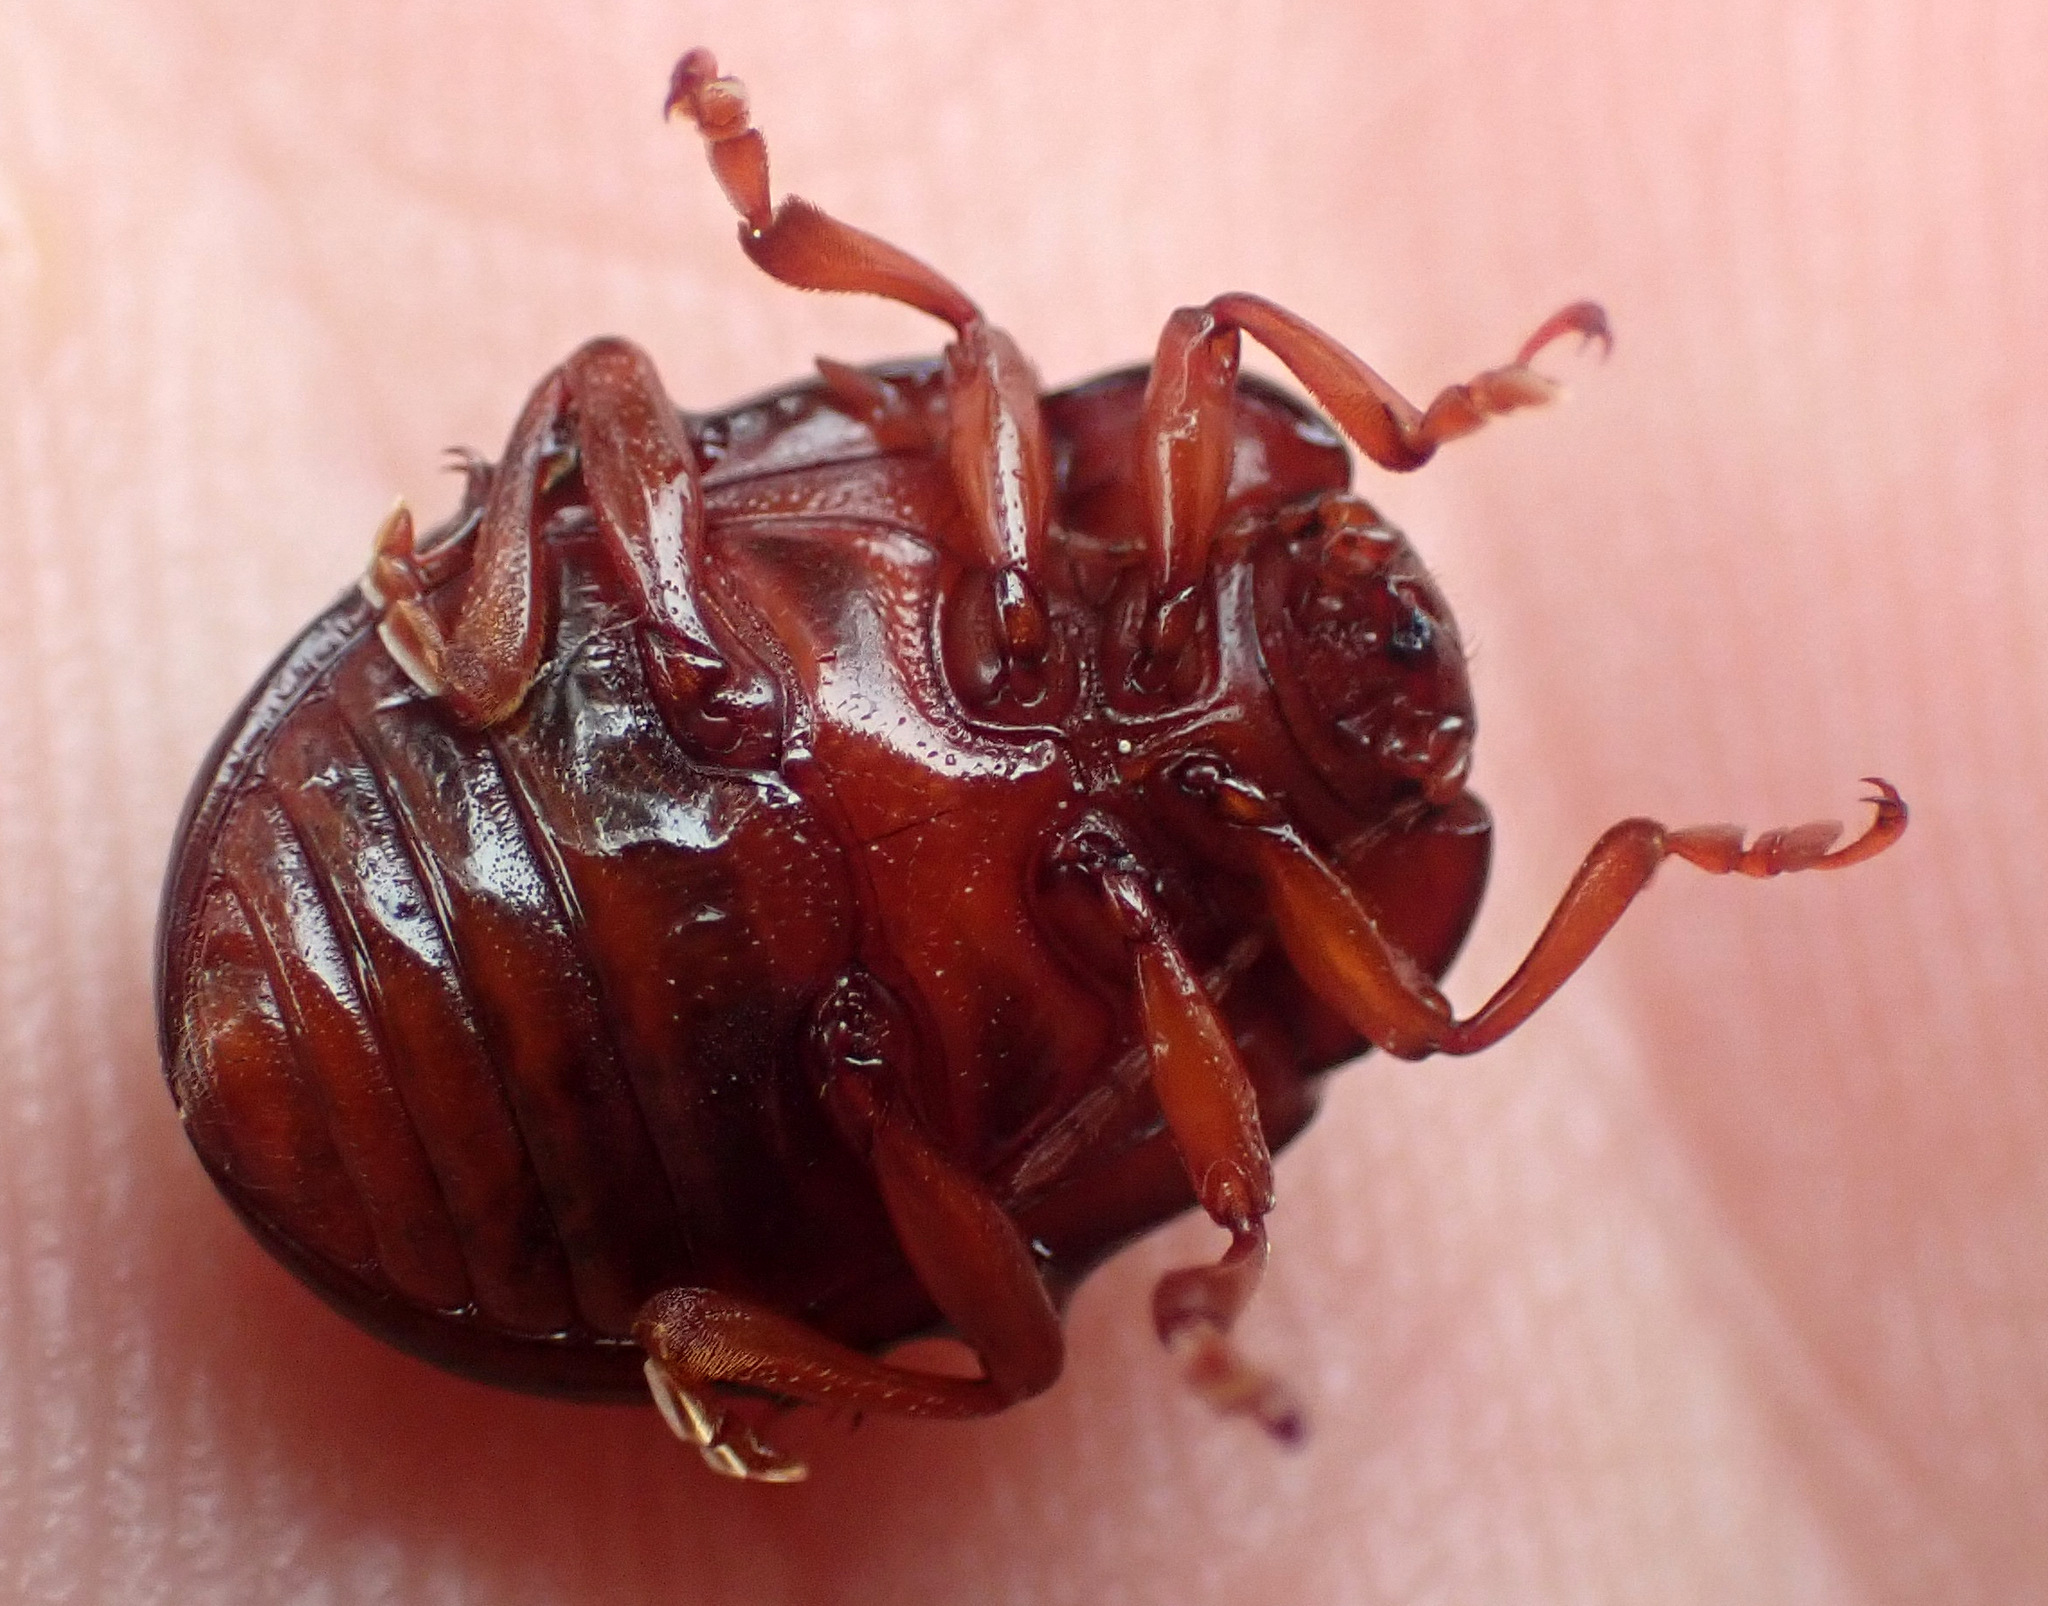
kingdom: Animalia
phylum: Arthropoda
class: Insecta
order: Coleoptera
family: Chrysomelidae
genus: Chrysolina
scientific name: Chrysolina bankii
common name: Leaf beetle
